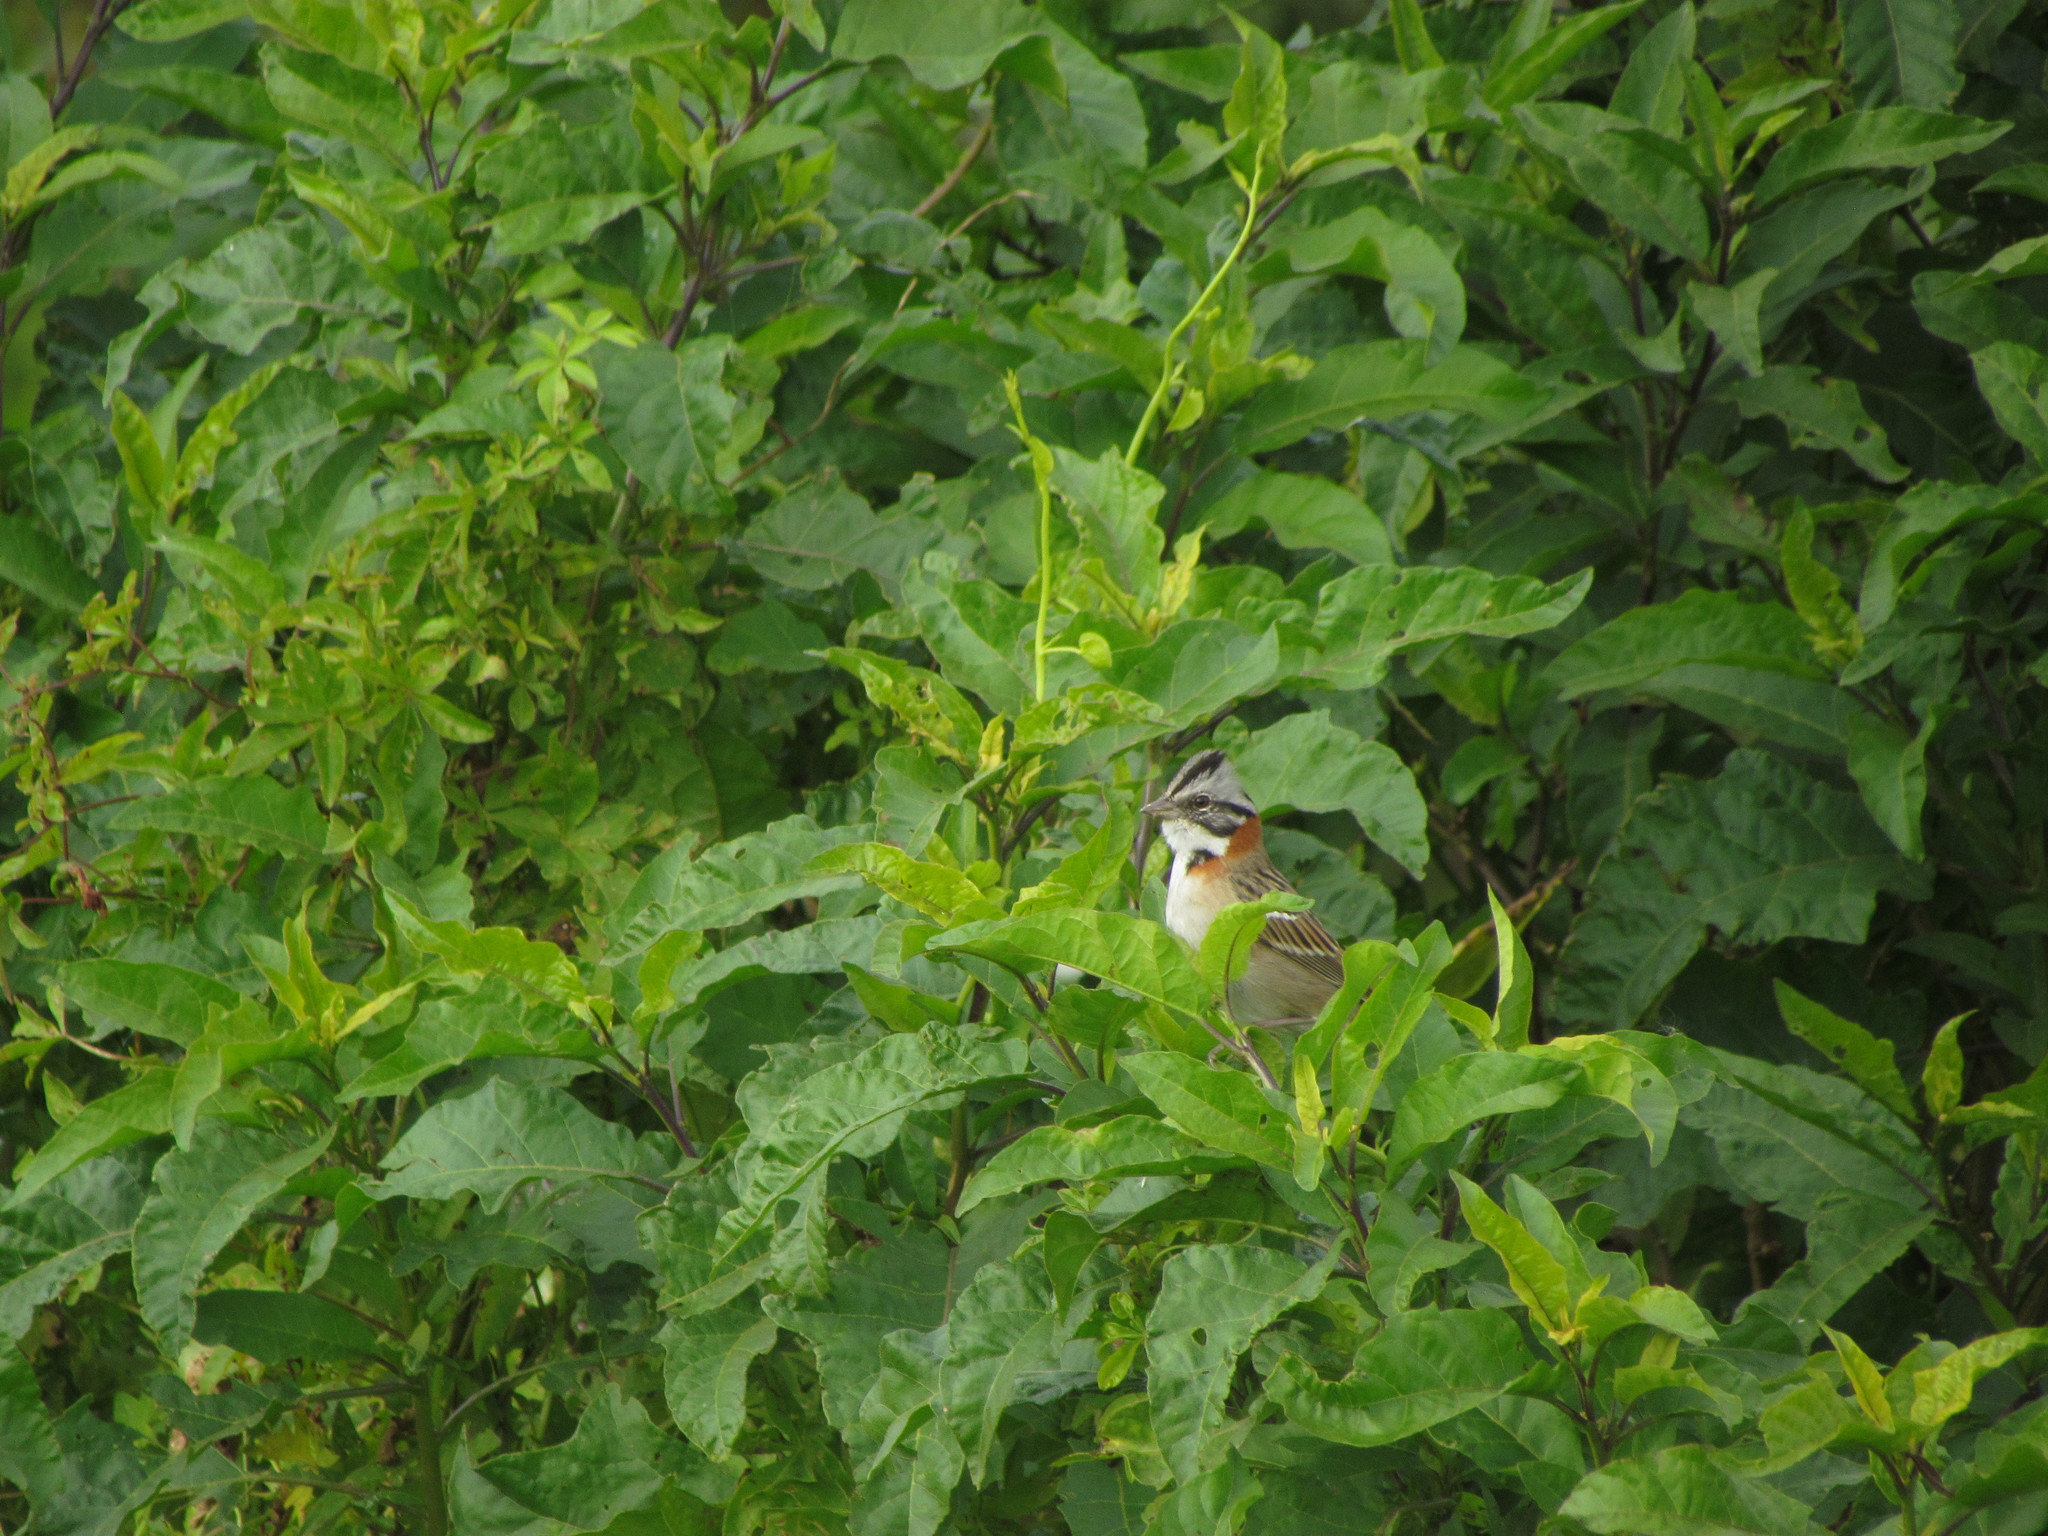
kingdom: Animalia
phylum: Chordata
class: Aves
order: Passeriformes
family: Passerellidae
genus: Zonotrichia
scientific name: Zonotrichia capensis
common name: Rufous-collared sparrow
